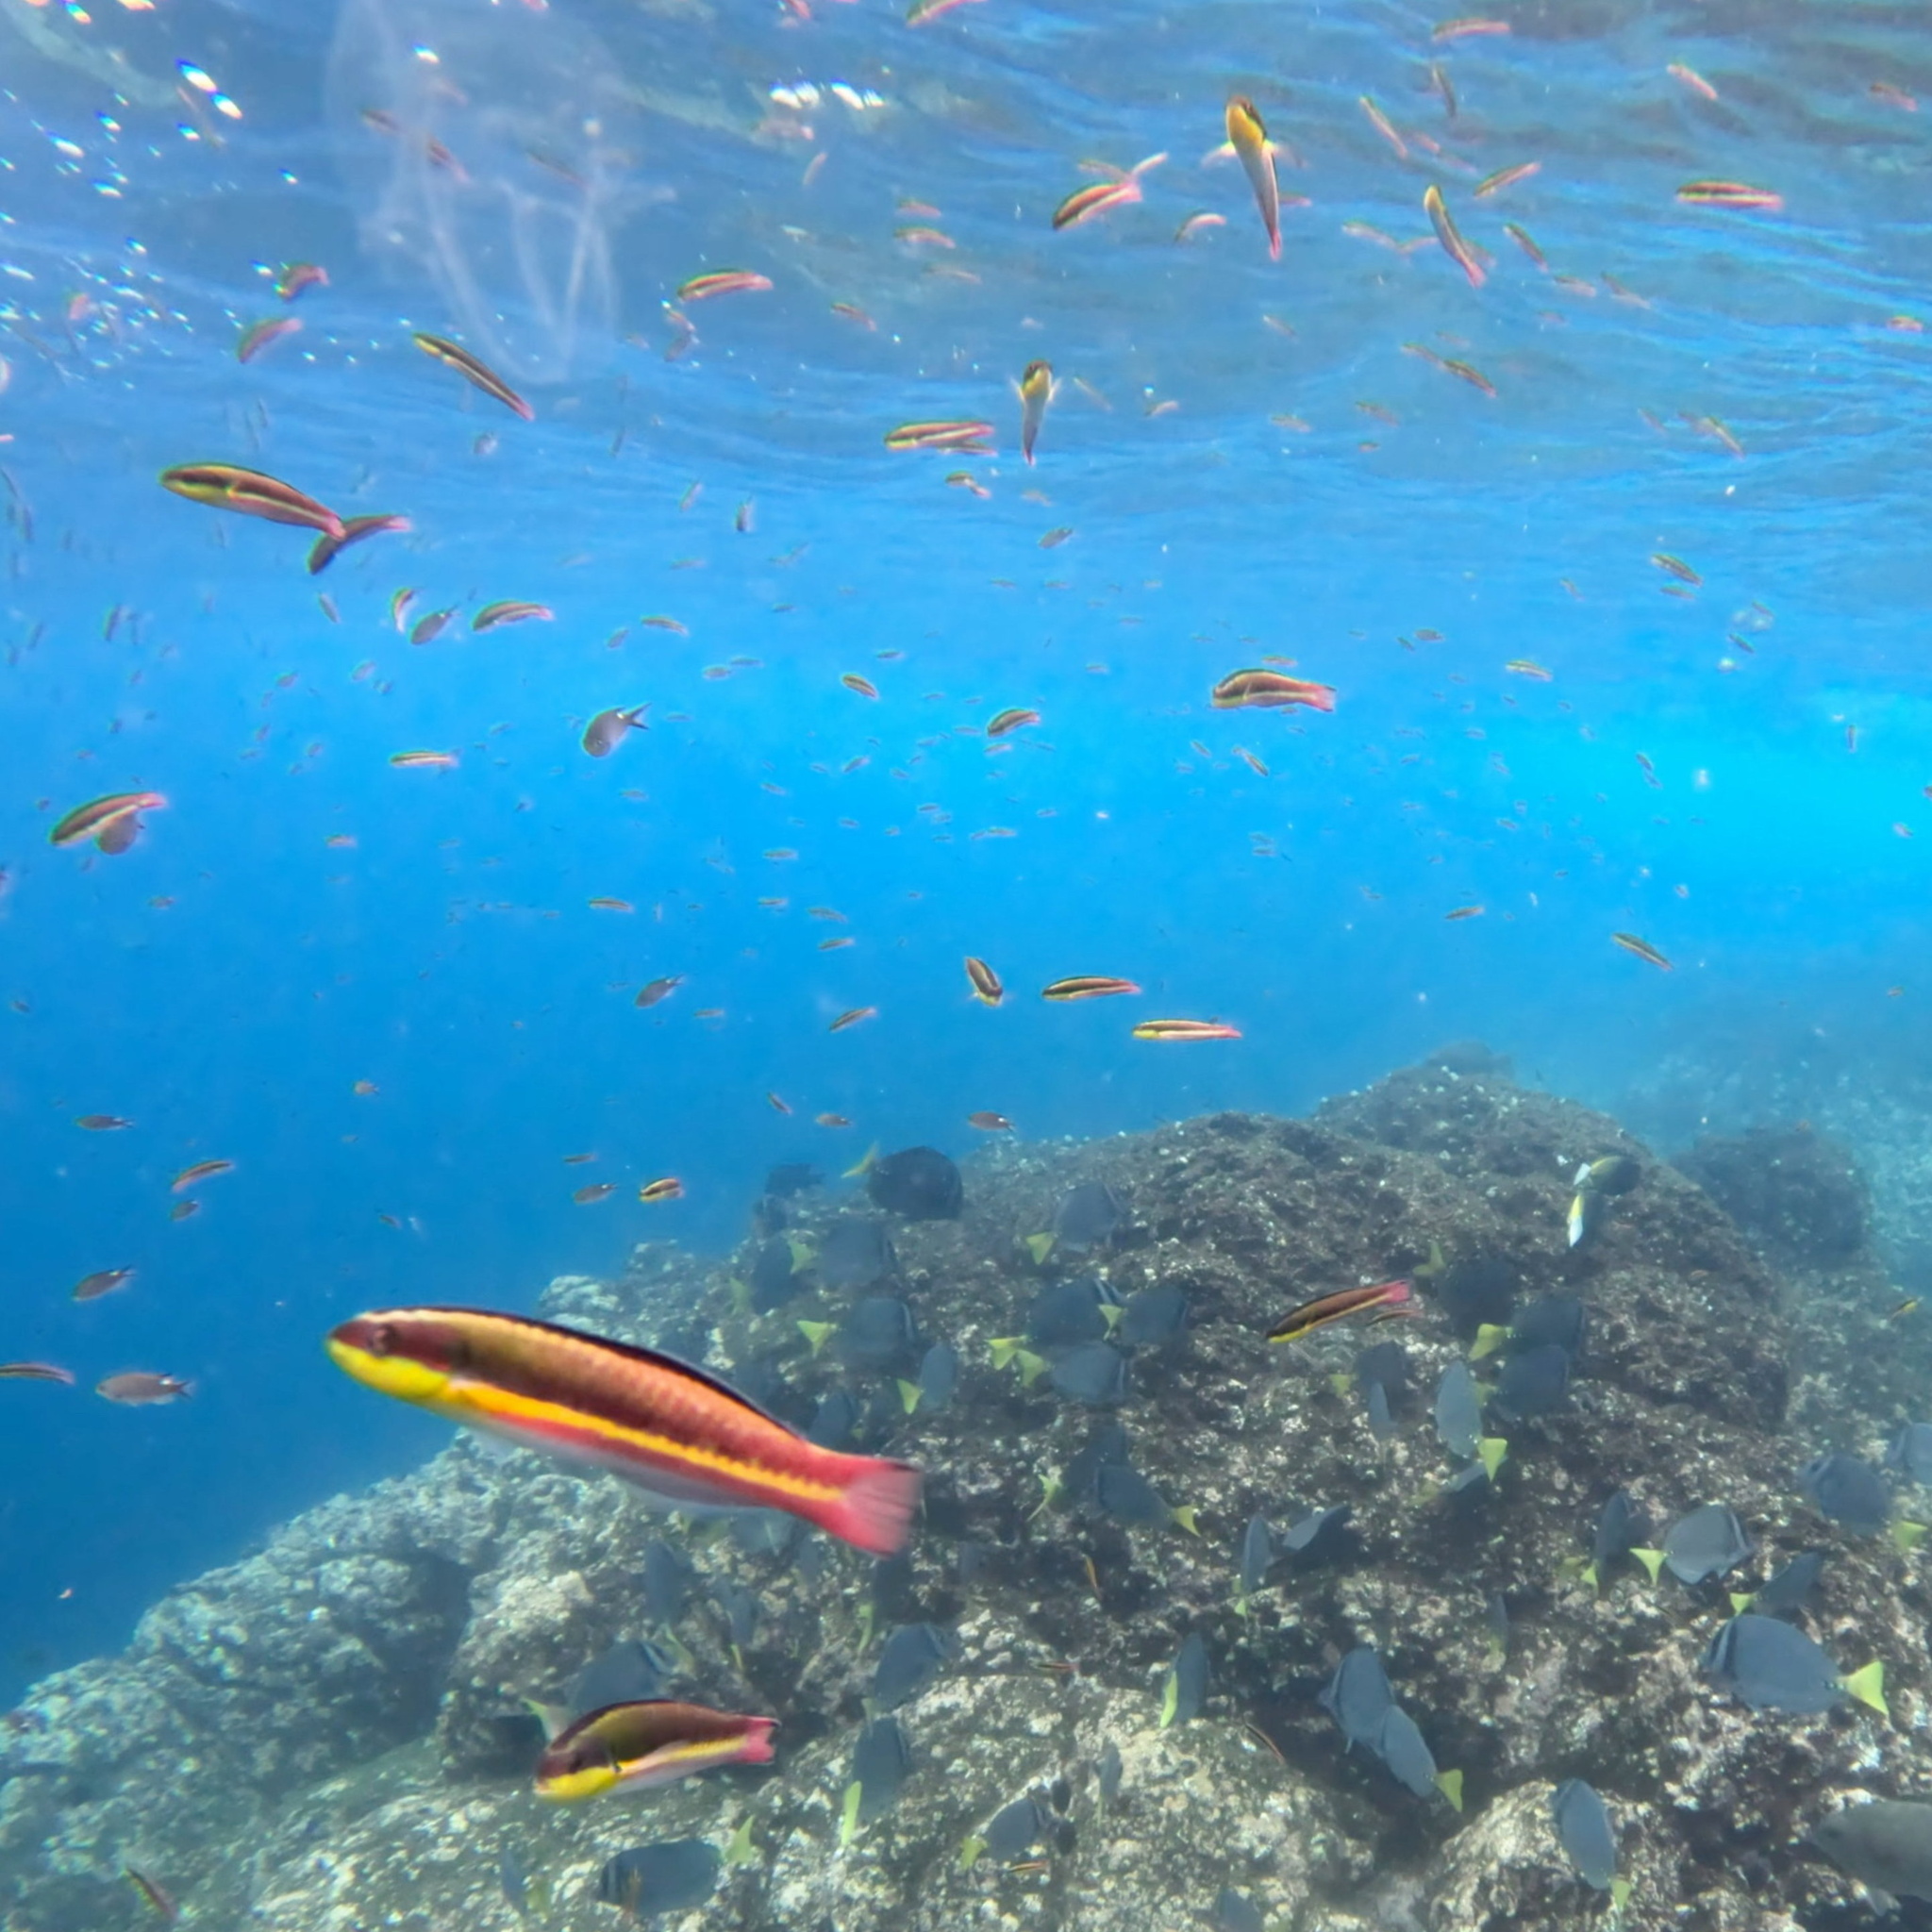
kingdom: Animalia
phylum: Chordata
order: Perciformes
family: Labridae
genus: Thalassoma
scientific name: Thalassoma lucasanum
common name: Cortez rainbow wrasse
